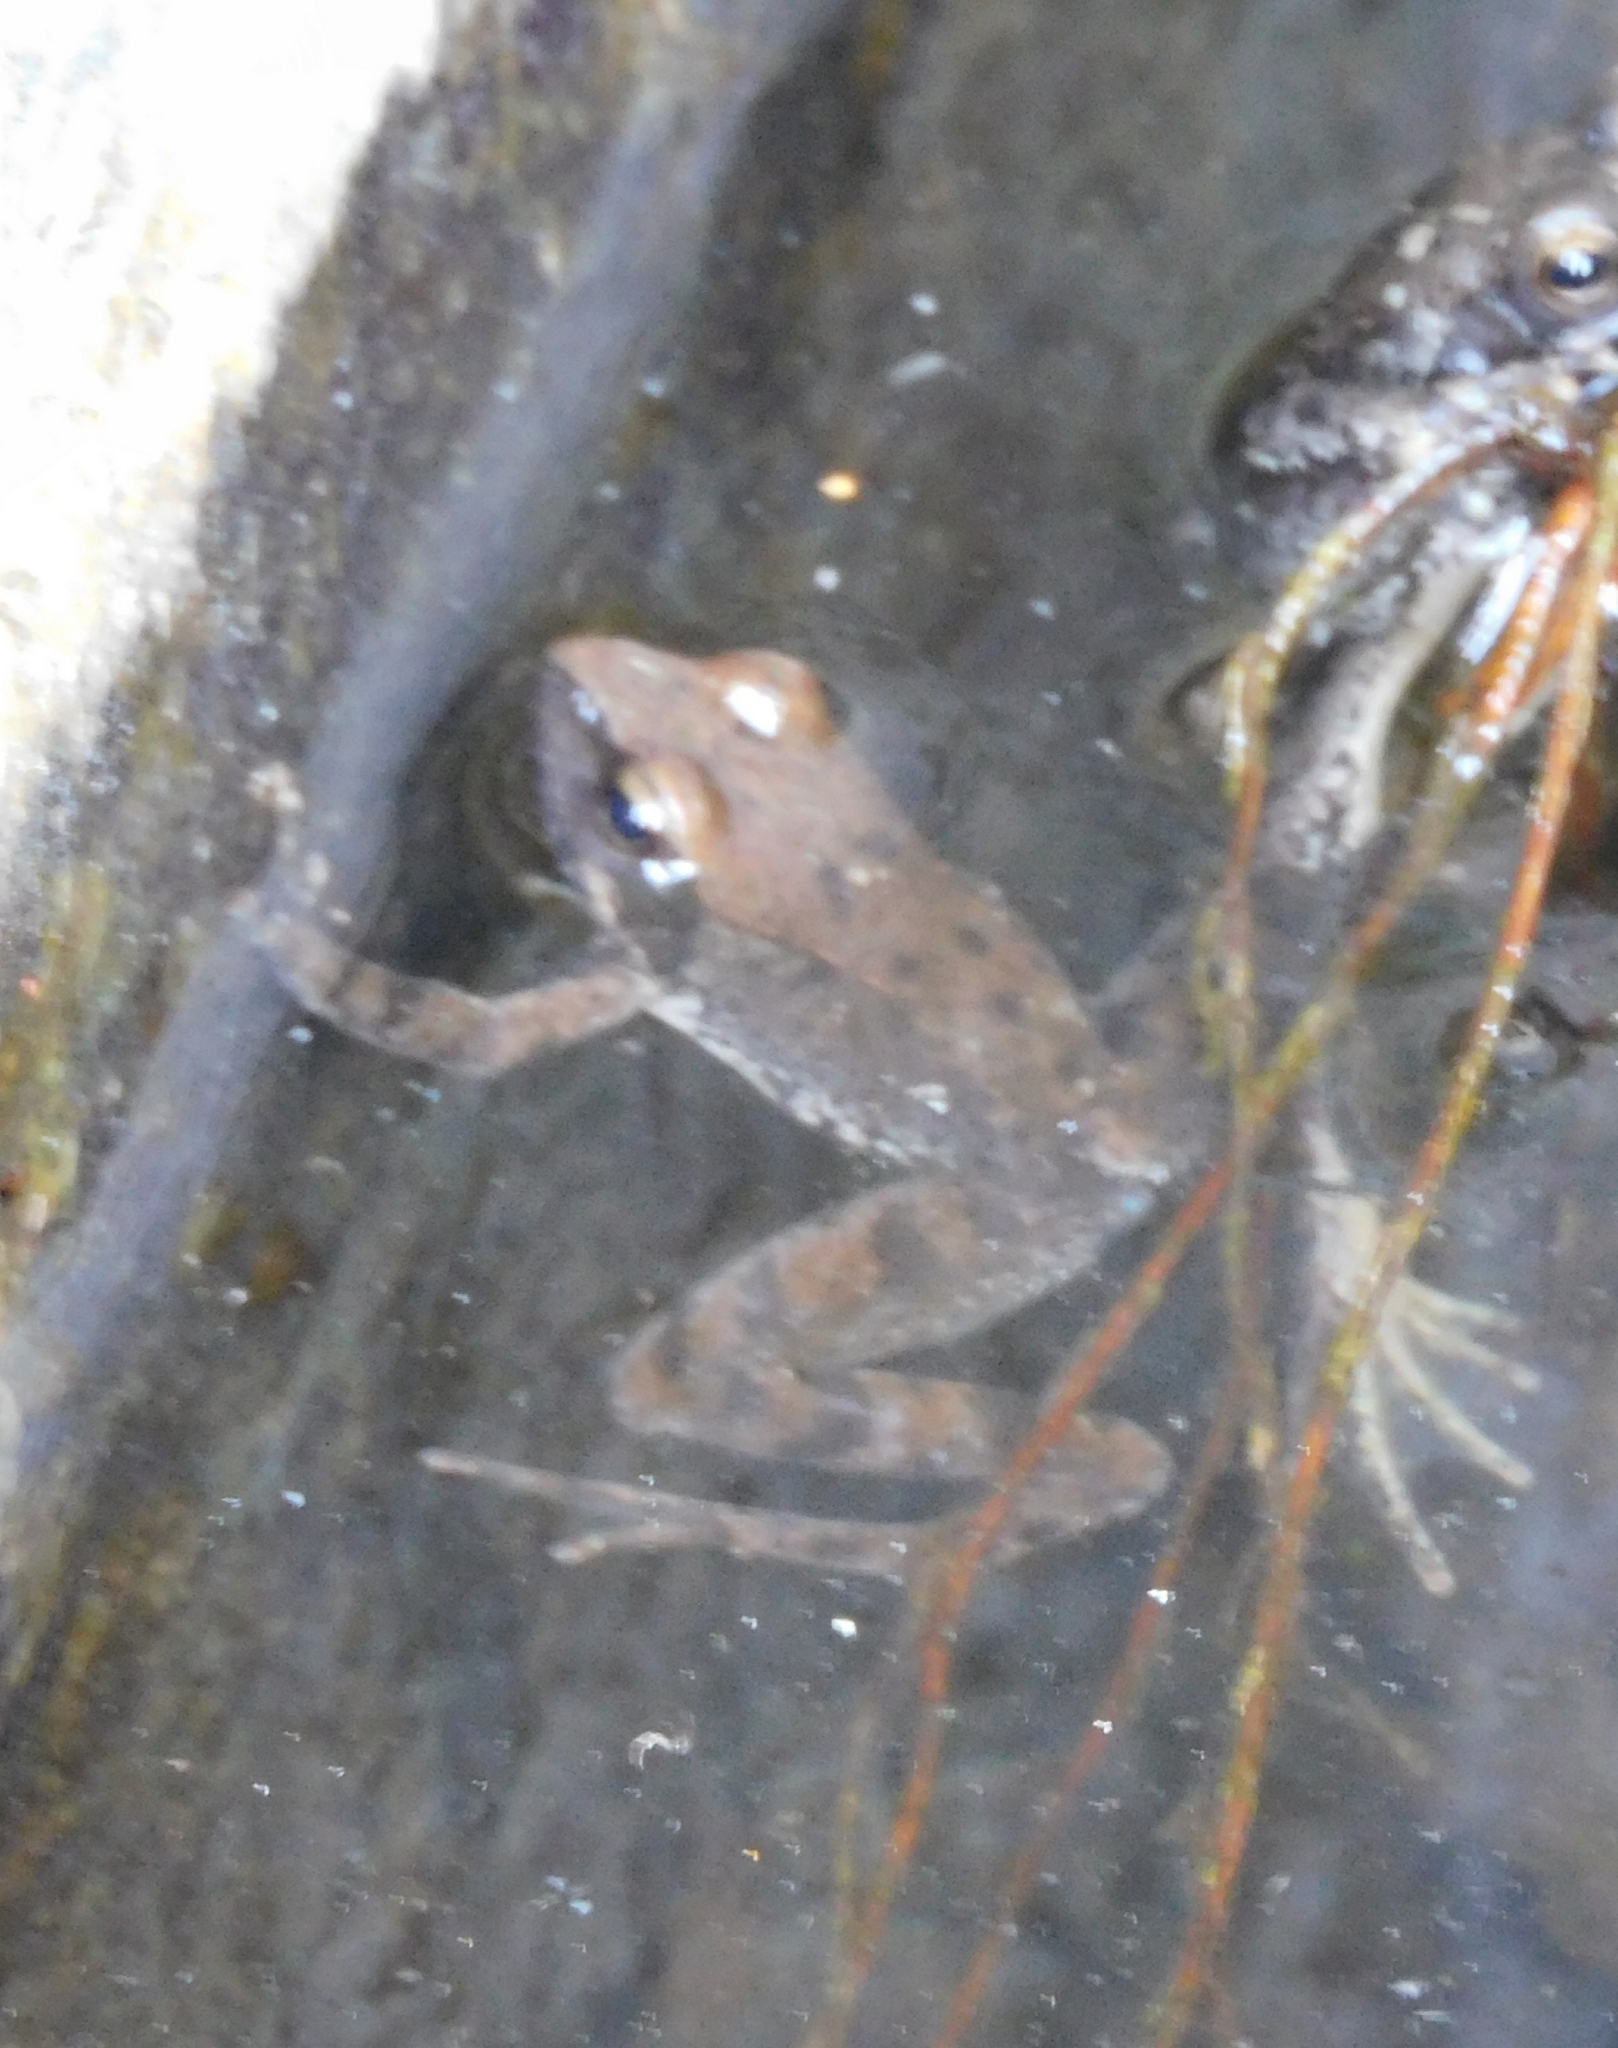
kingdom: Animalia
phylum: Chordata
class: Amphibia
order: Anura
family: Ranidae
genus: Rana
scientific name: Rana italica
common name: Italian stream frog
